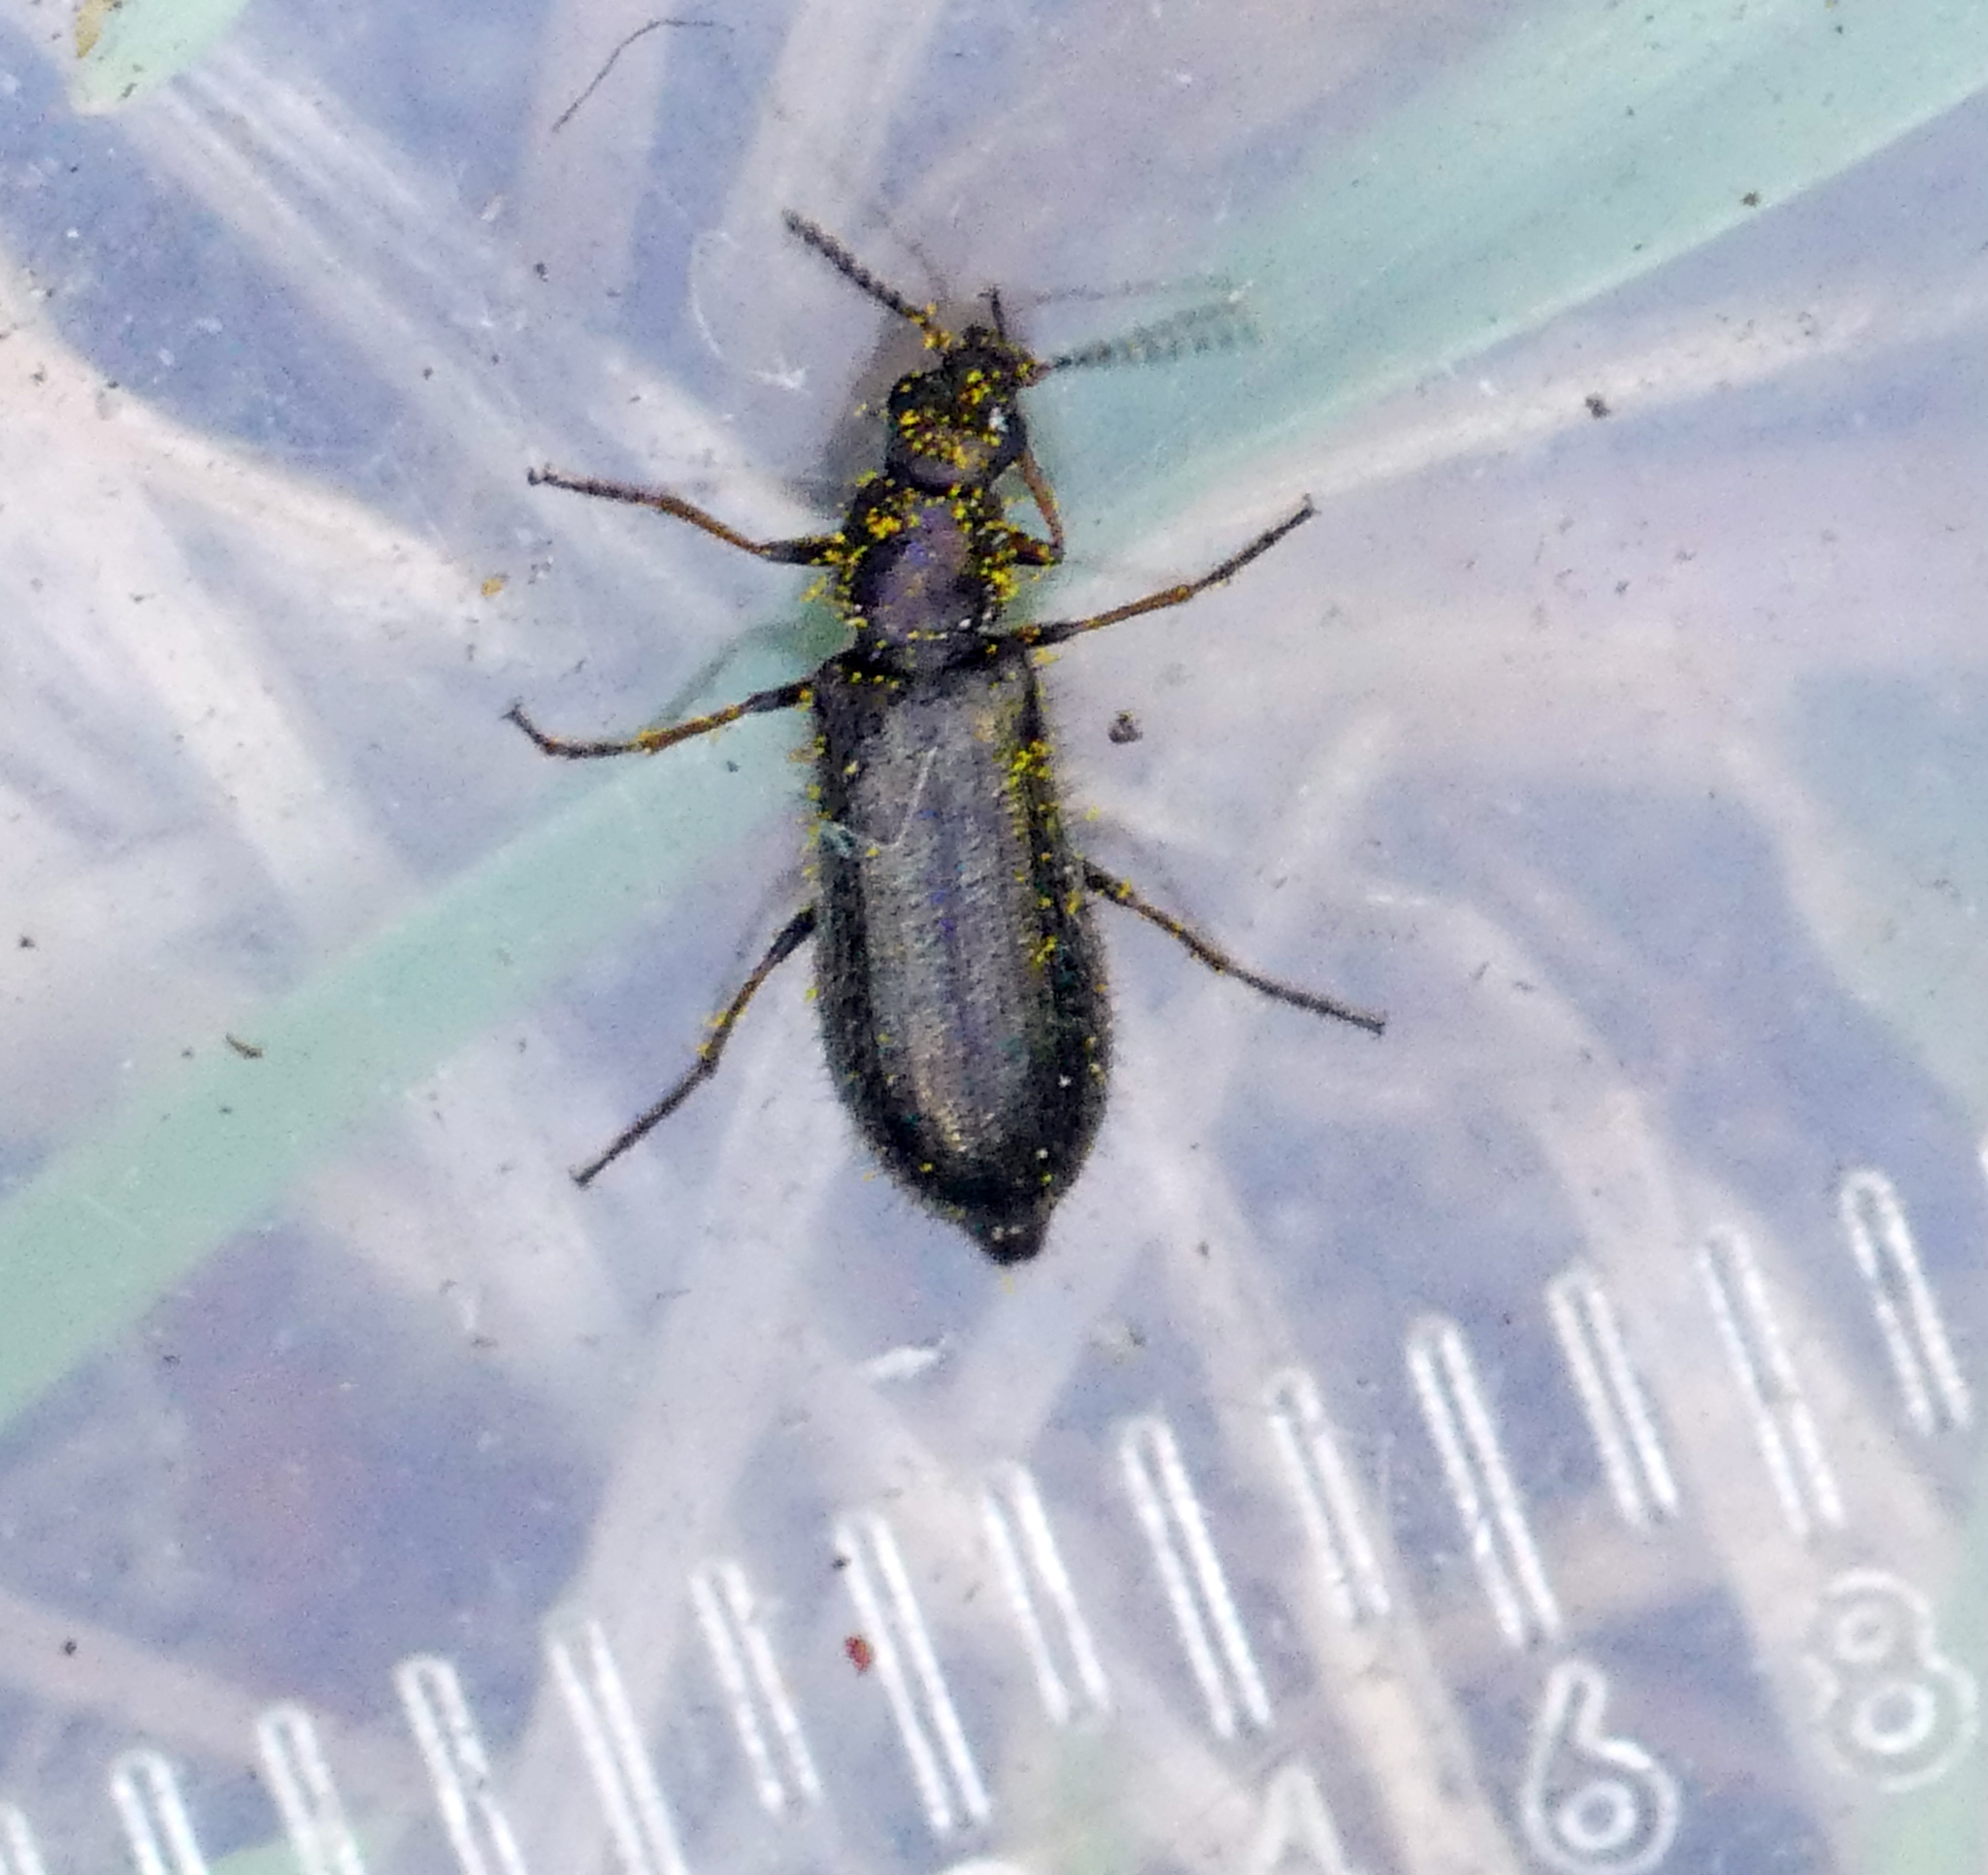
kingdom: Animalia
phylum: Arthropoda
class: Insecta
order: Coleoptera
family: Melyridae
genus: Dasytes
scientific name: Dasytes plumbeus
